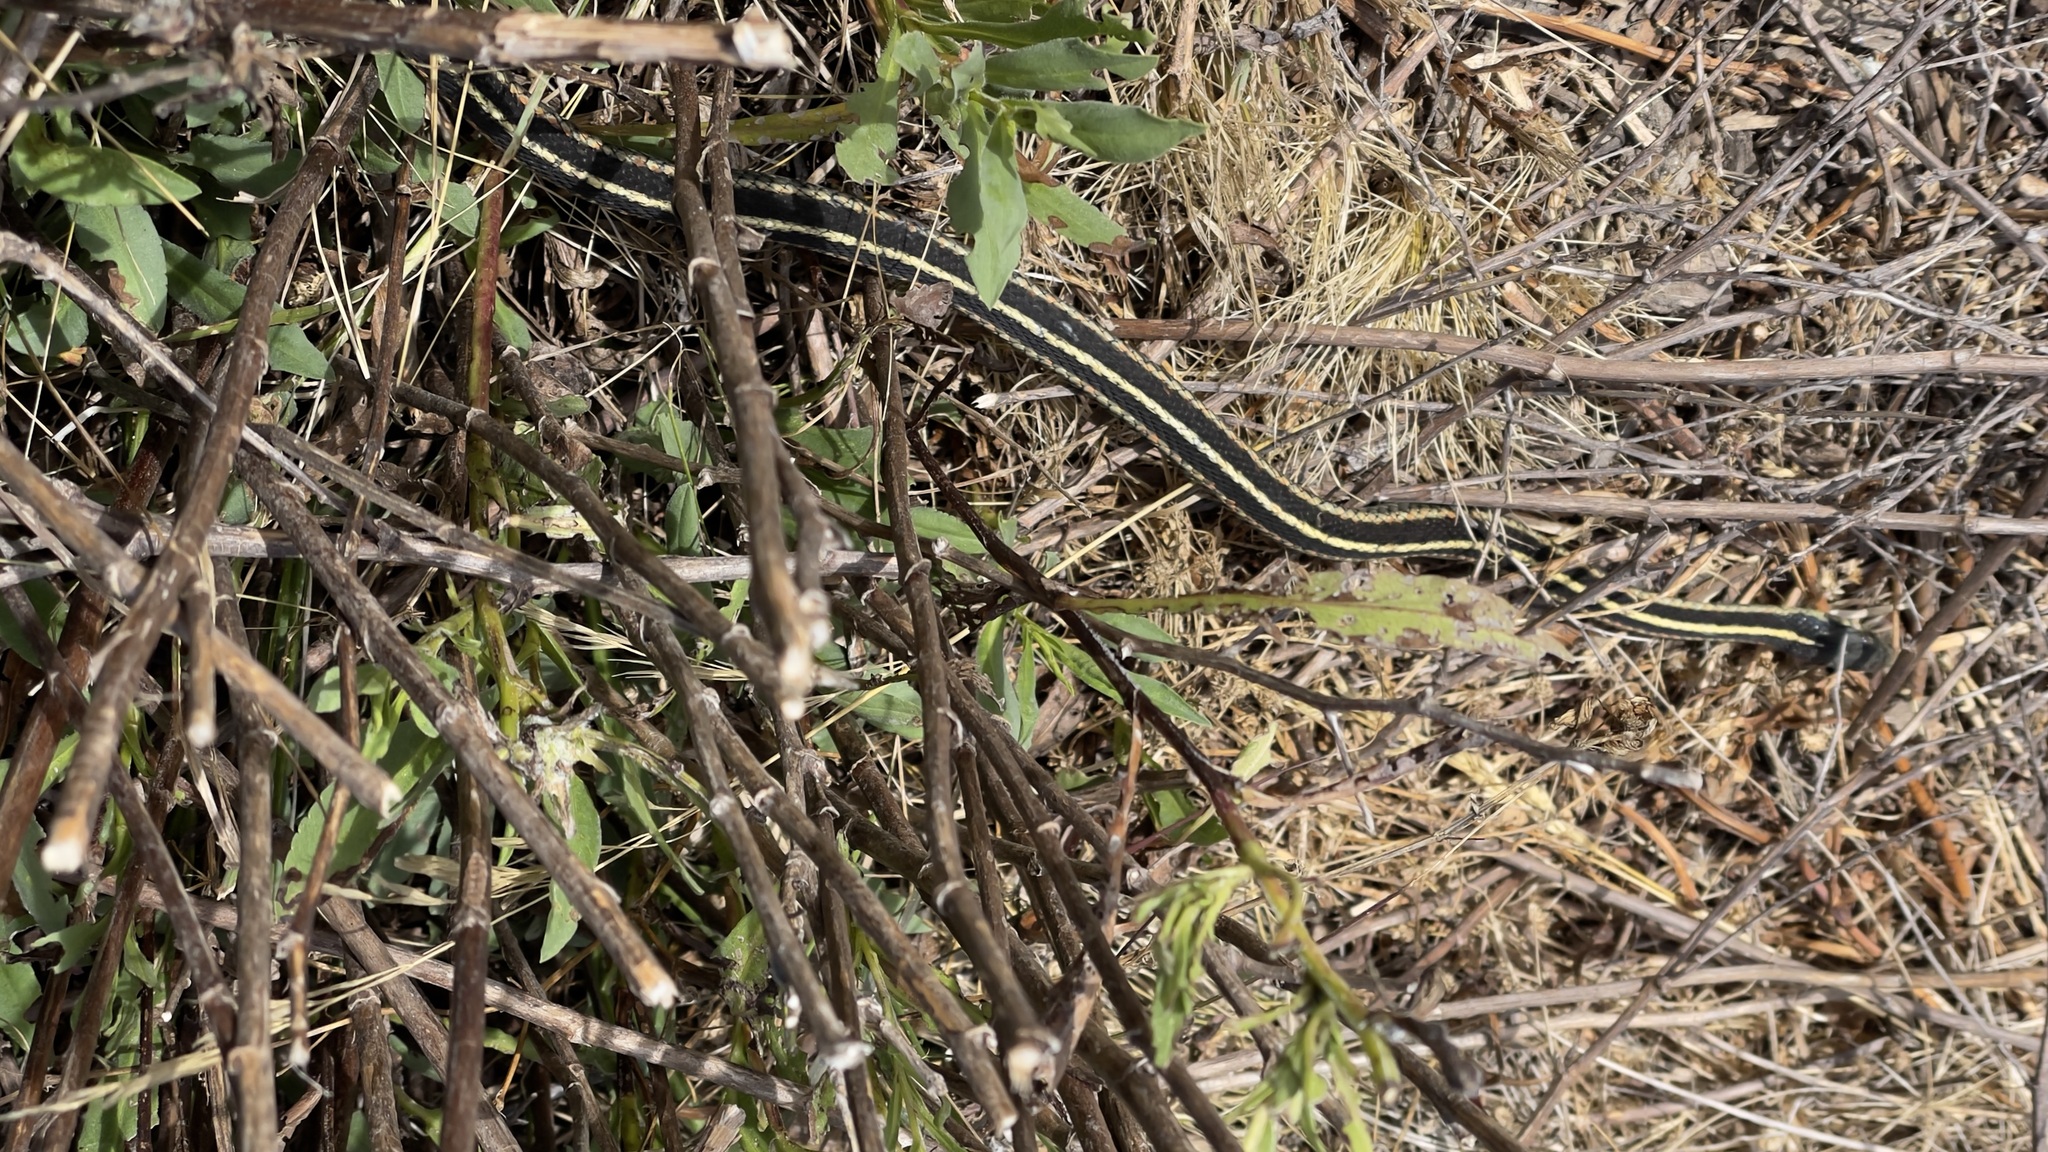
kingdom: Animalia
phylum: Chordata
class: Squamata
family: Colubridae
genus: Thamnophis
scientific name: Thamnophis elegans
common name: Western terrestrial garter snake
